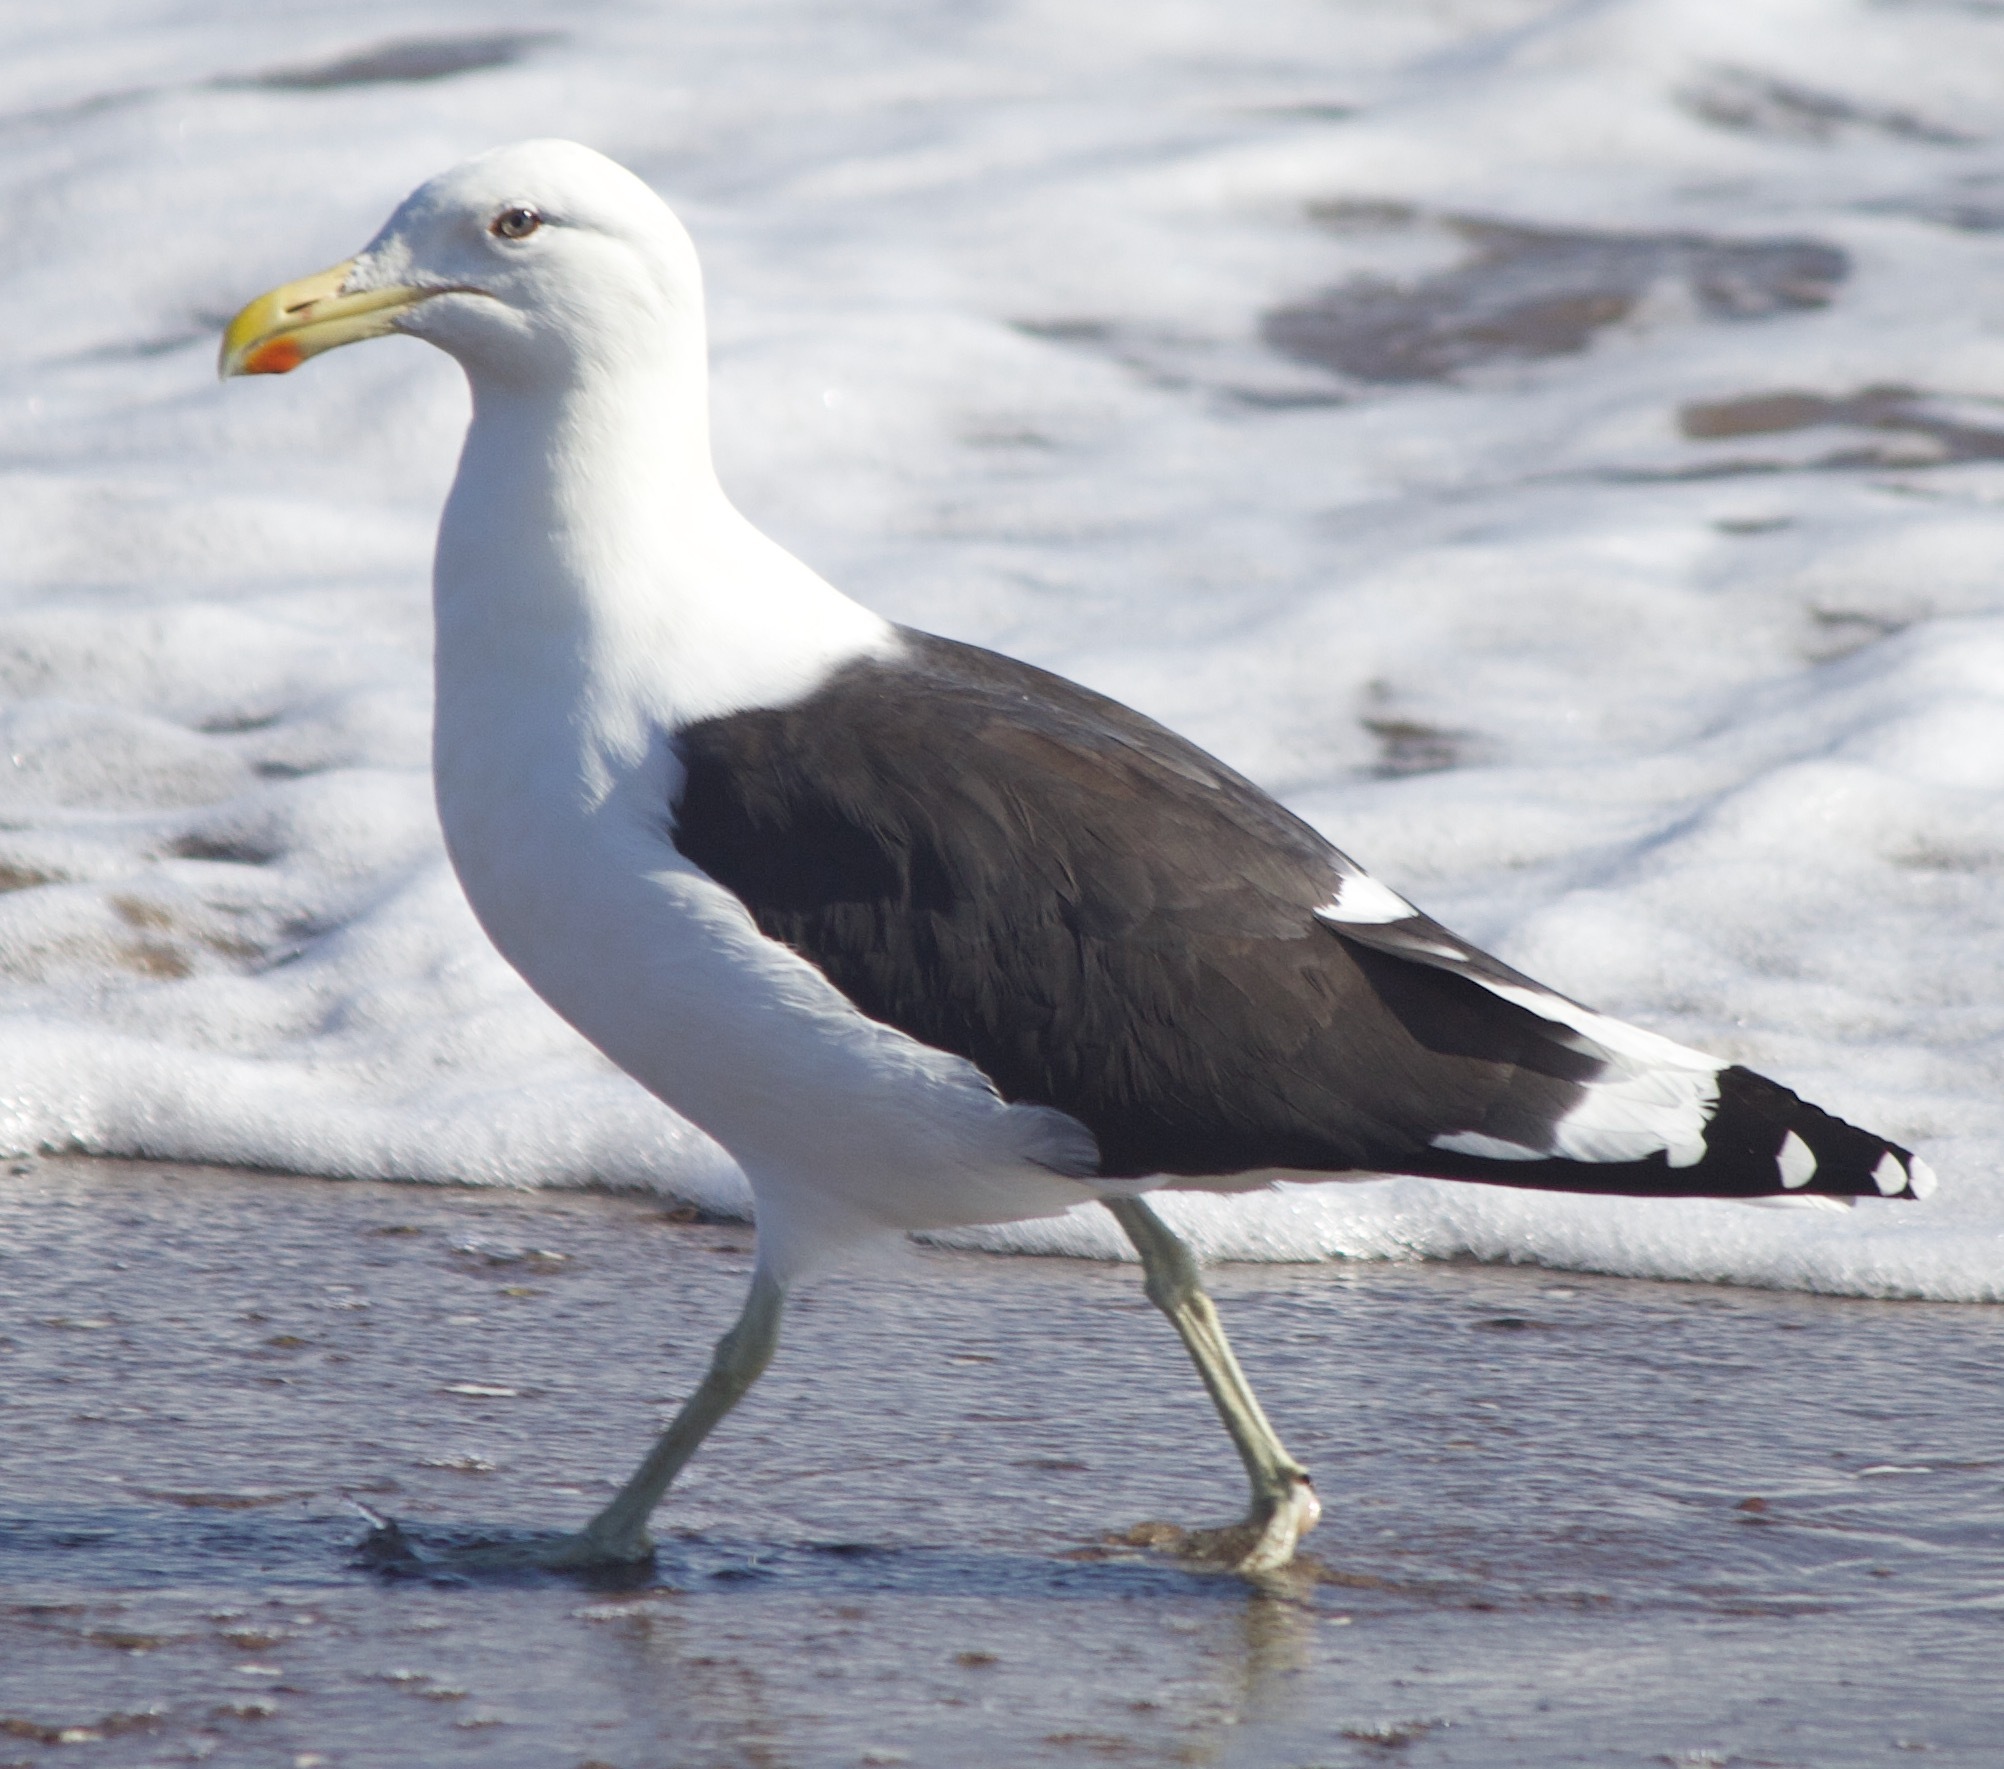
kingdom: Animalia
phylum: Chordata
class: Aves
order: Charadriiformes
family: Laridae
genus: Larus
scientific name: Larus dominicanus
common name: Kelp gull
